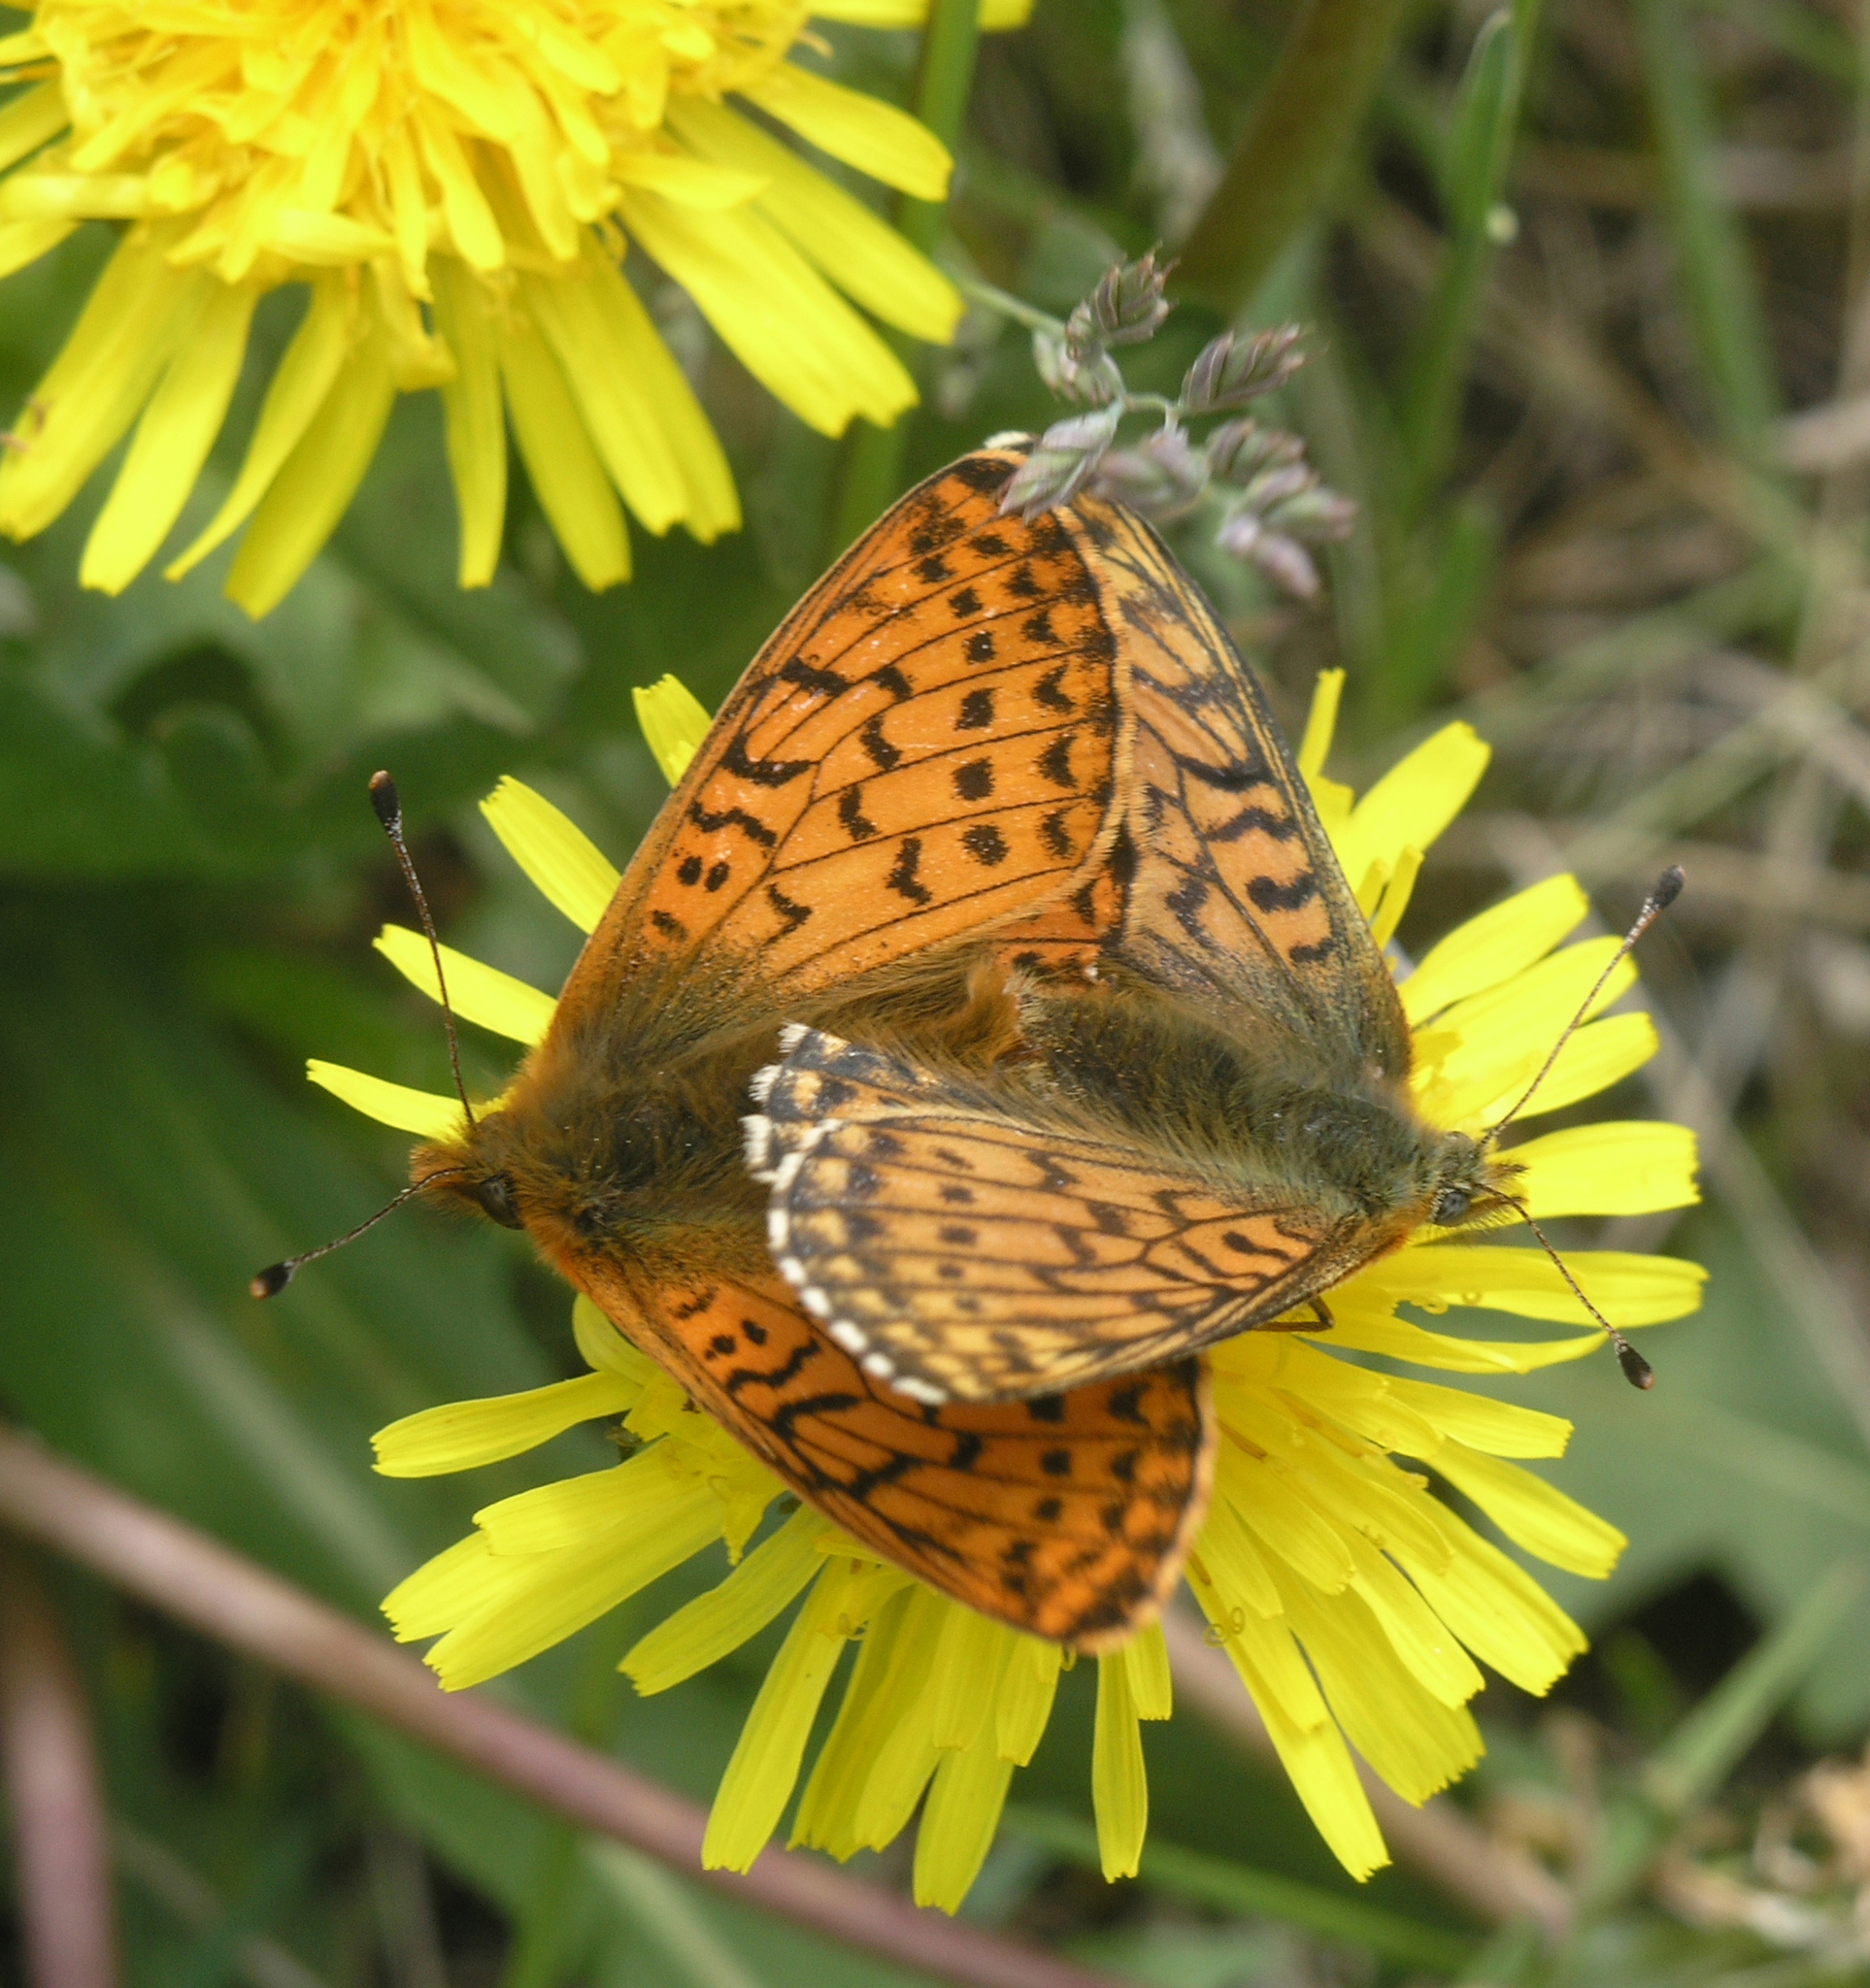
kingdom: Animalia
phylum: Arthropoda
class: Insecta
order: Lepidoptera
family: Nymphalidae
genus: Boloria
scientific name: Boloria
